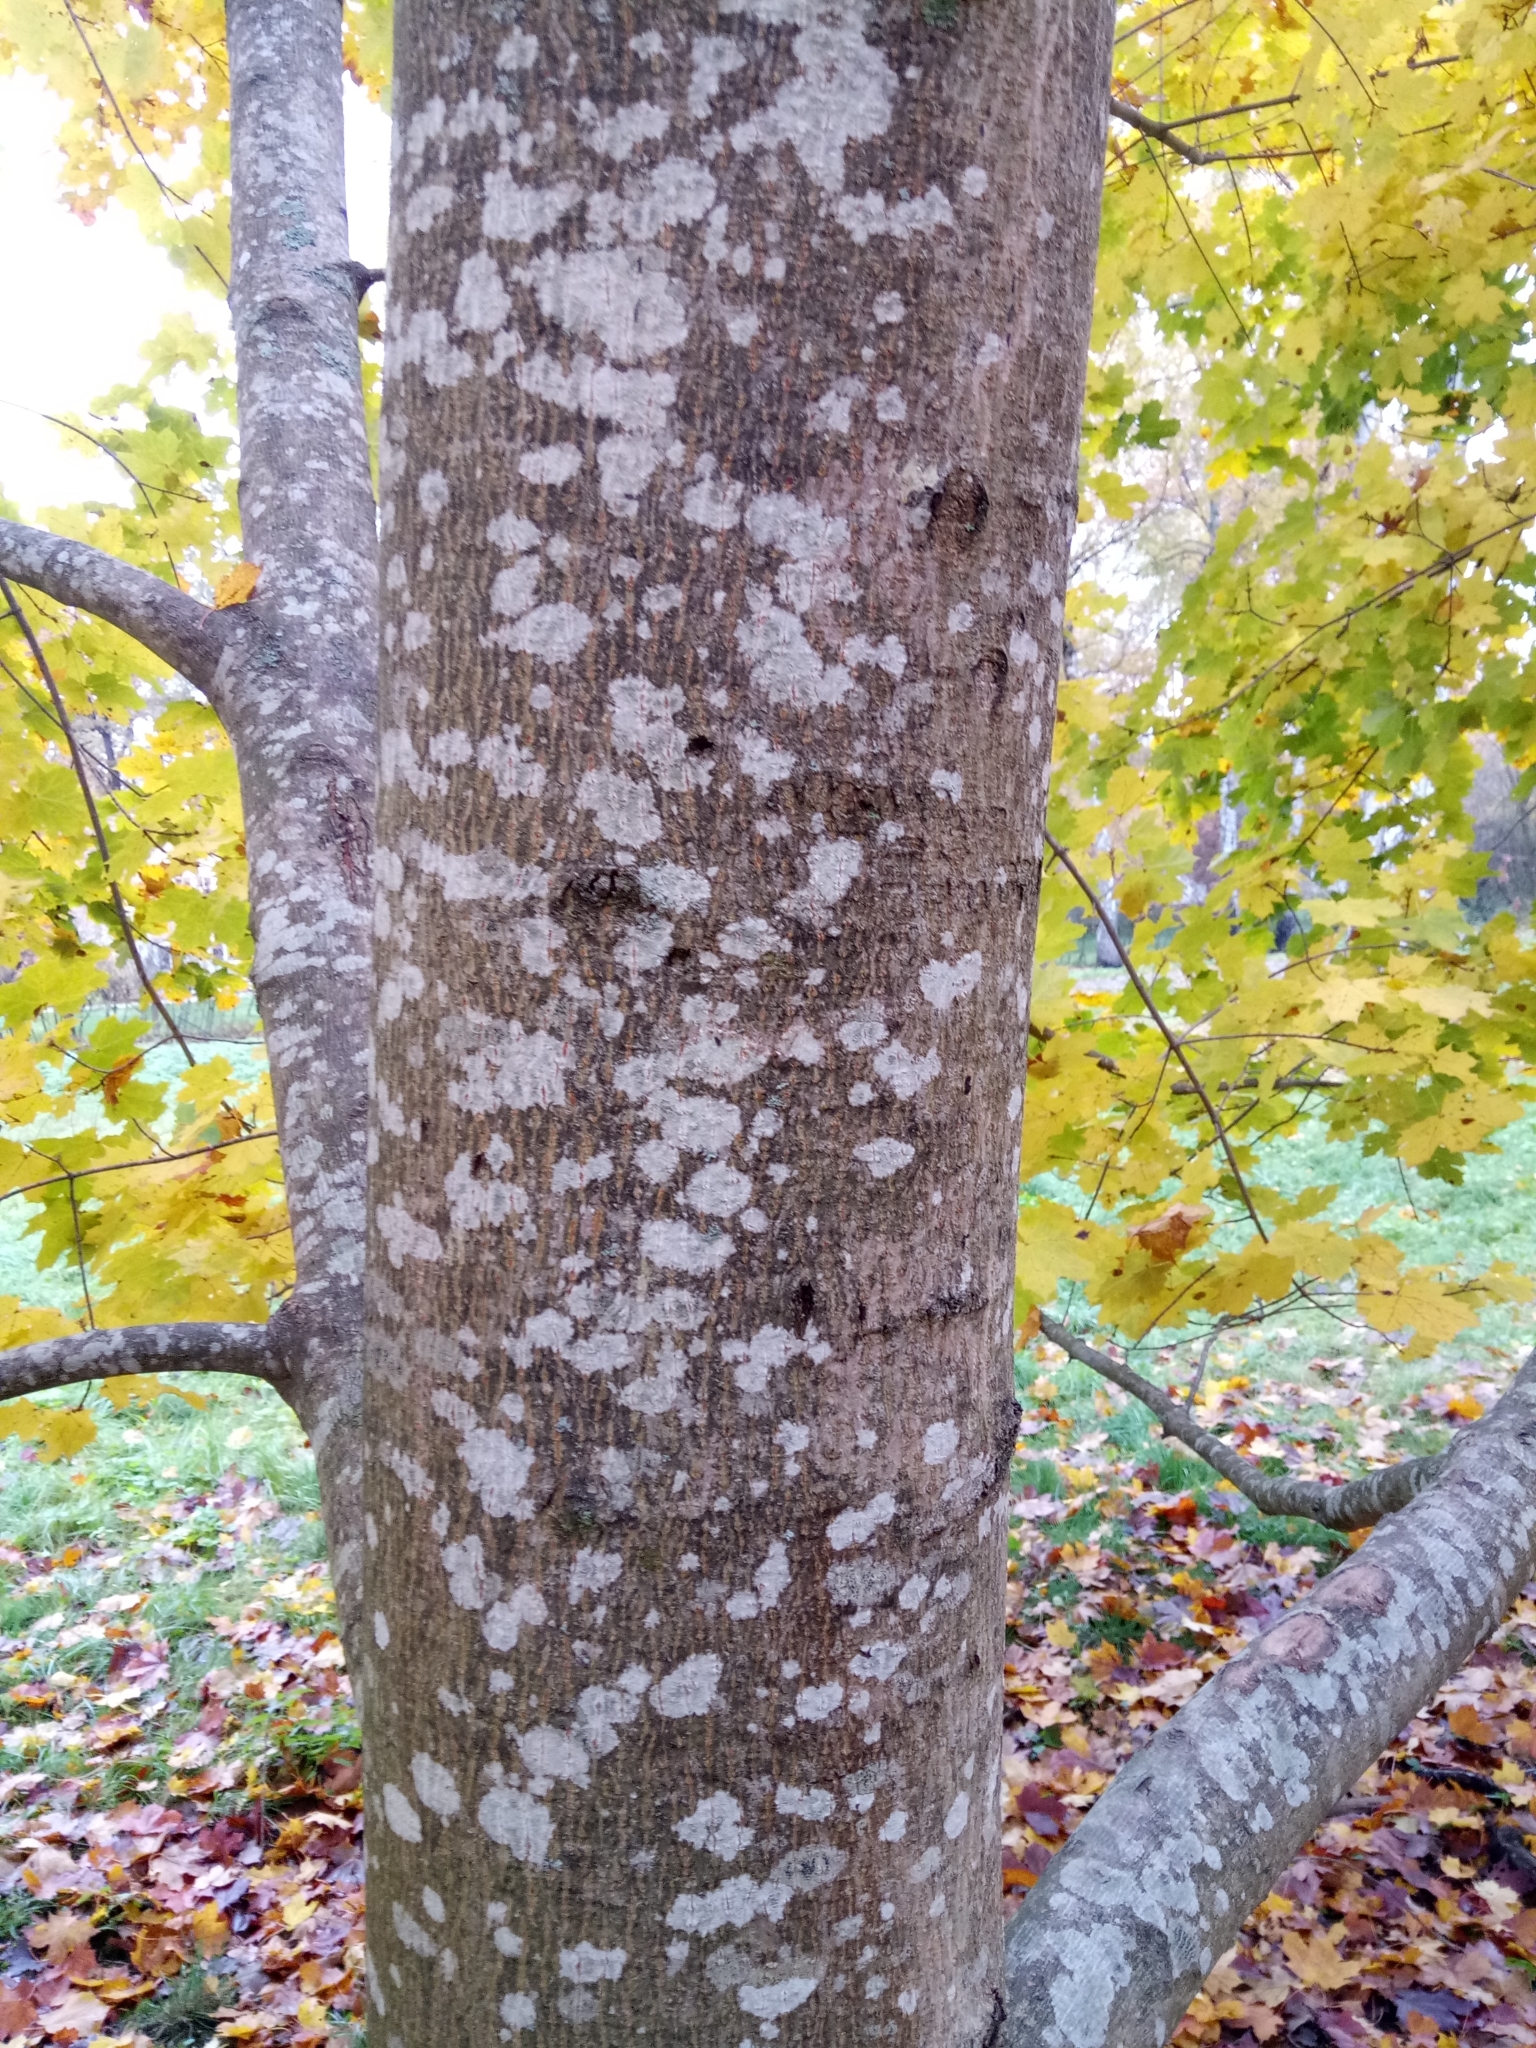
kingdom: Plantae
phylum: Tracheophyta
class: Magnoliopsida
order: Sapindales
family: Sapindaceae
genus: Acer
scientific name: Acer platanoides
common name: Norway maple
